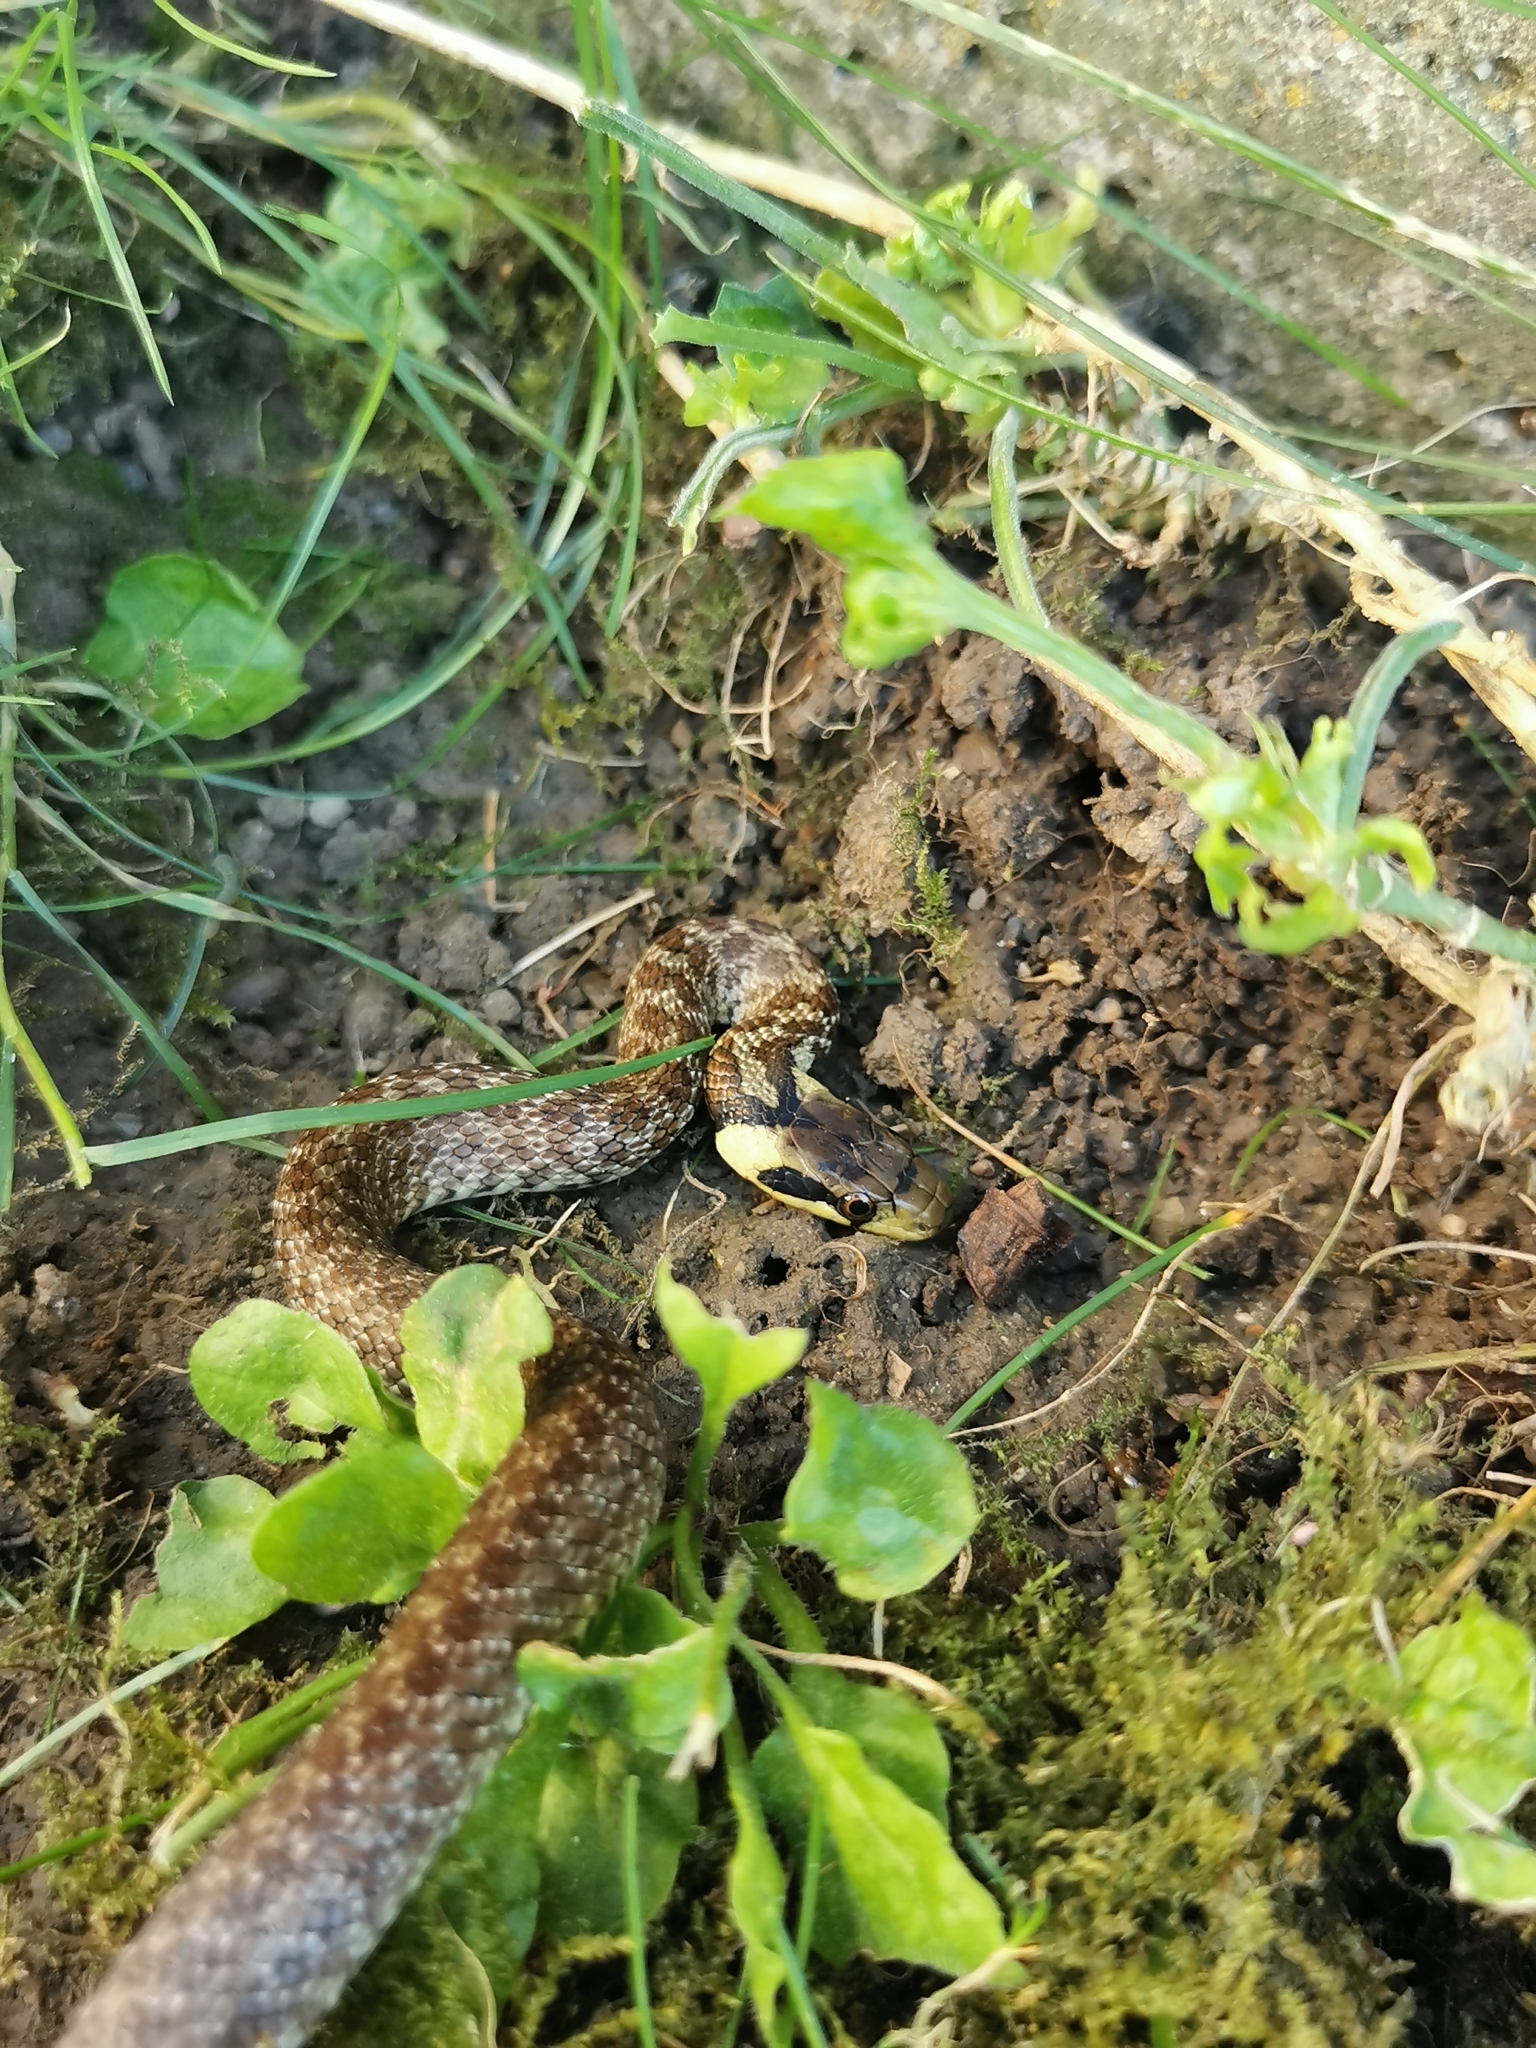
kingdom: Animalia
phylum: Chordata
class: Squamata
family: Colubridae
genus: Zamenis
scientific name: Zamenis longissimus
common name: Aesculapean snake
